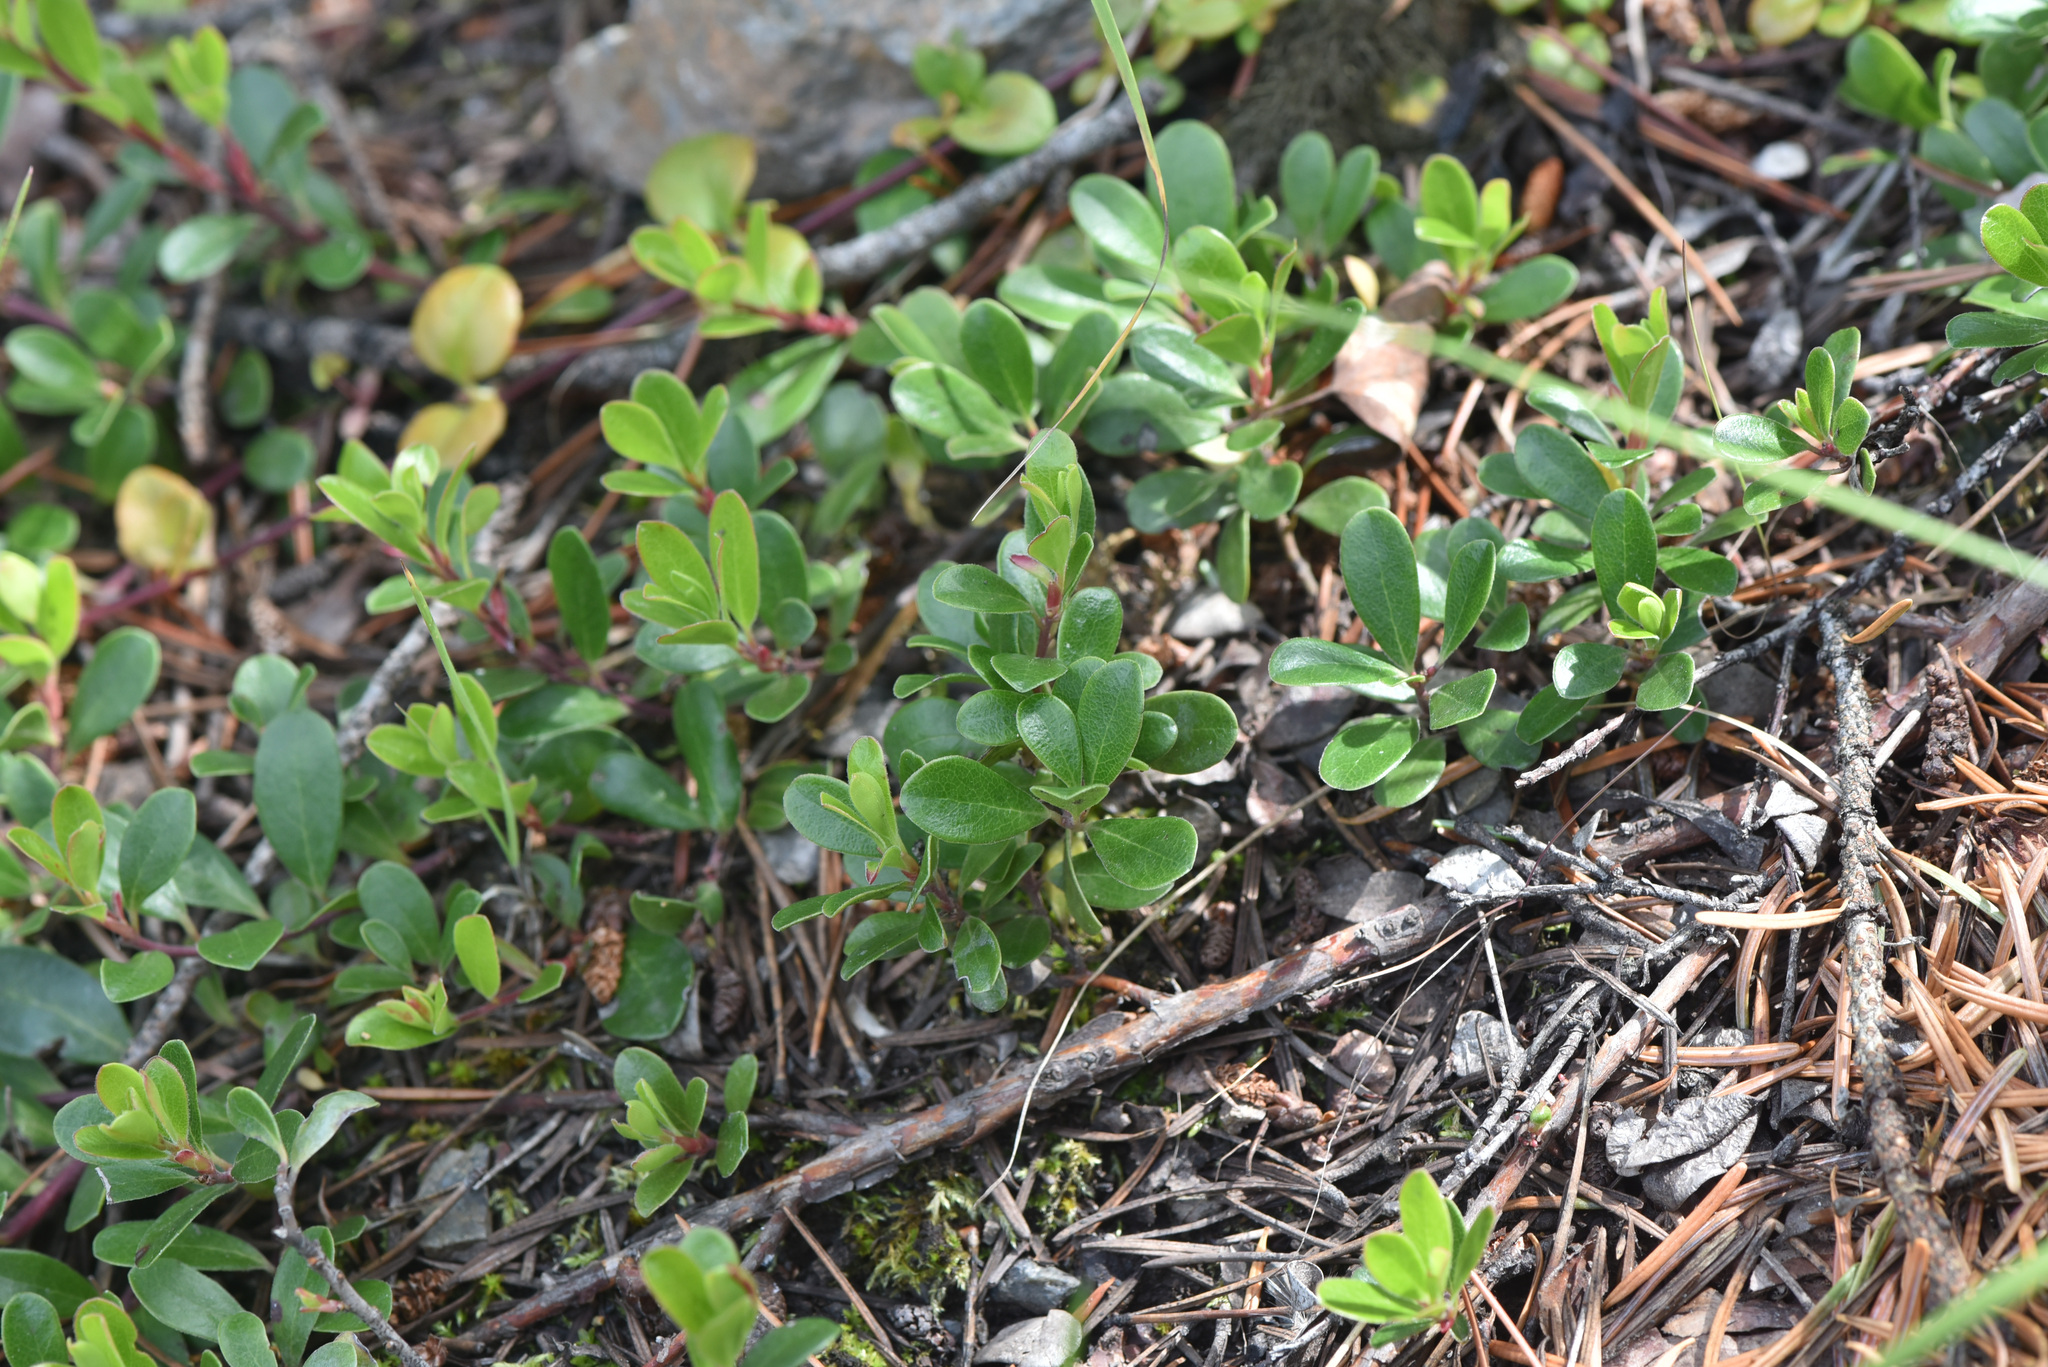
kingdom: Plantae
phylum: Tracheophyta
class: Magnoliopsida
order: Ericales
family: Ericaceae
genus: Arctostaphylos
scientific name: Arctostaphylos uva-ursi
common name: Bearberry
